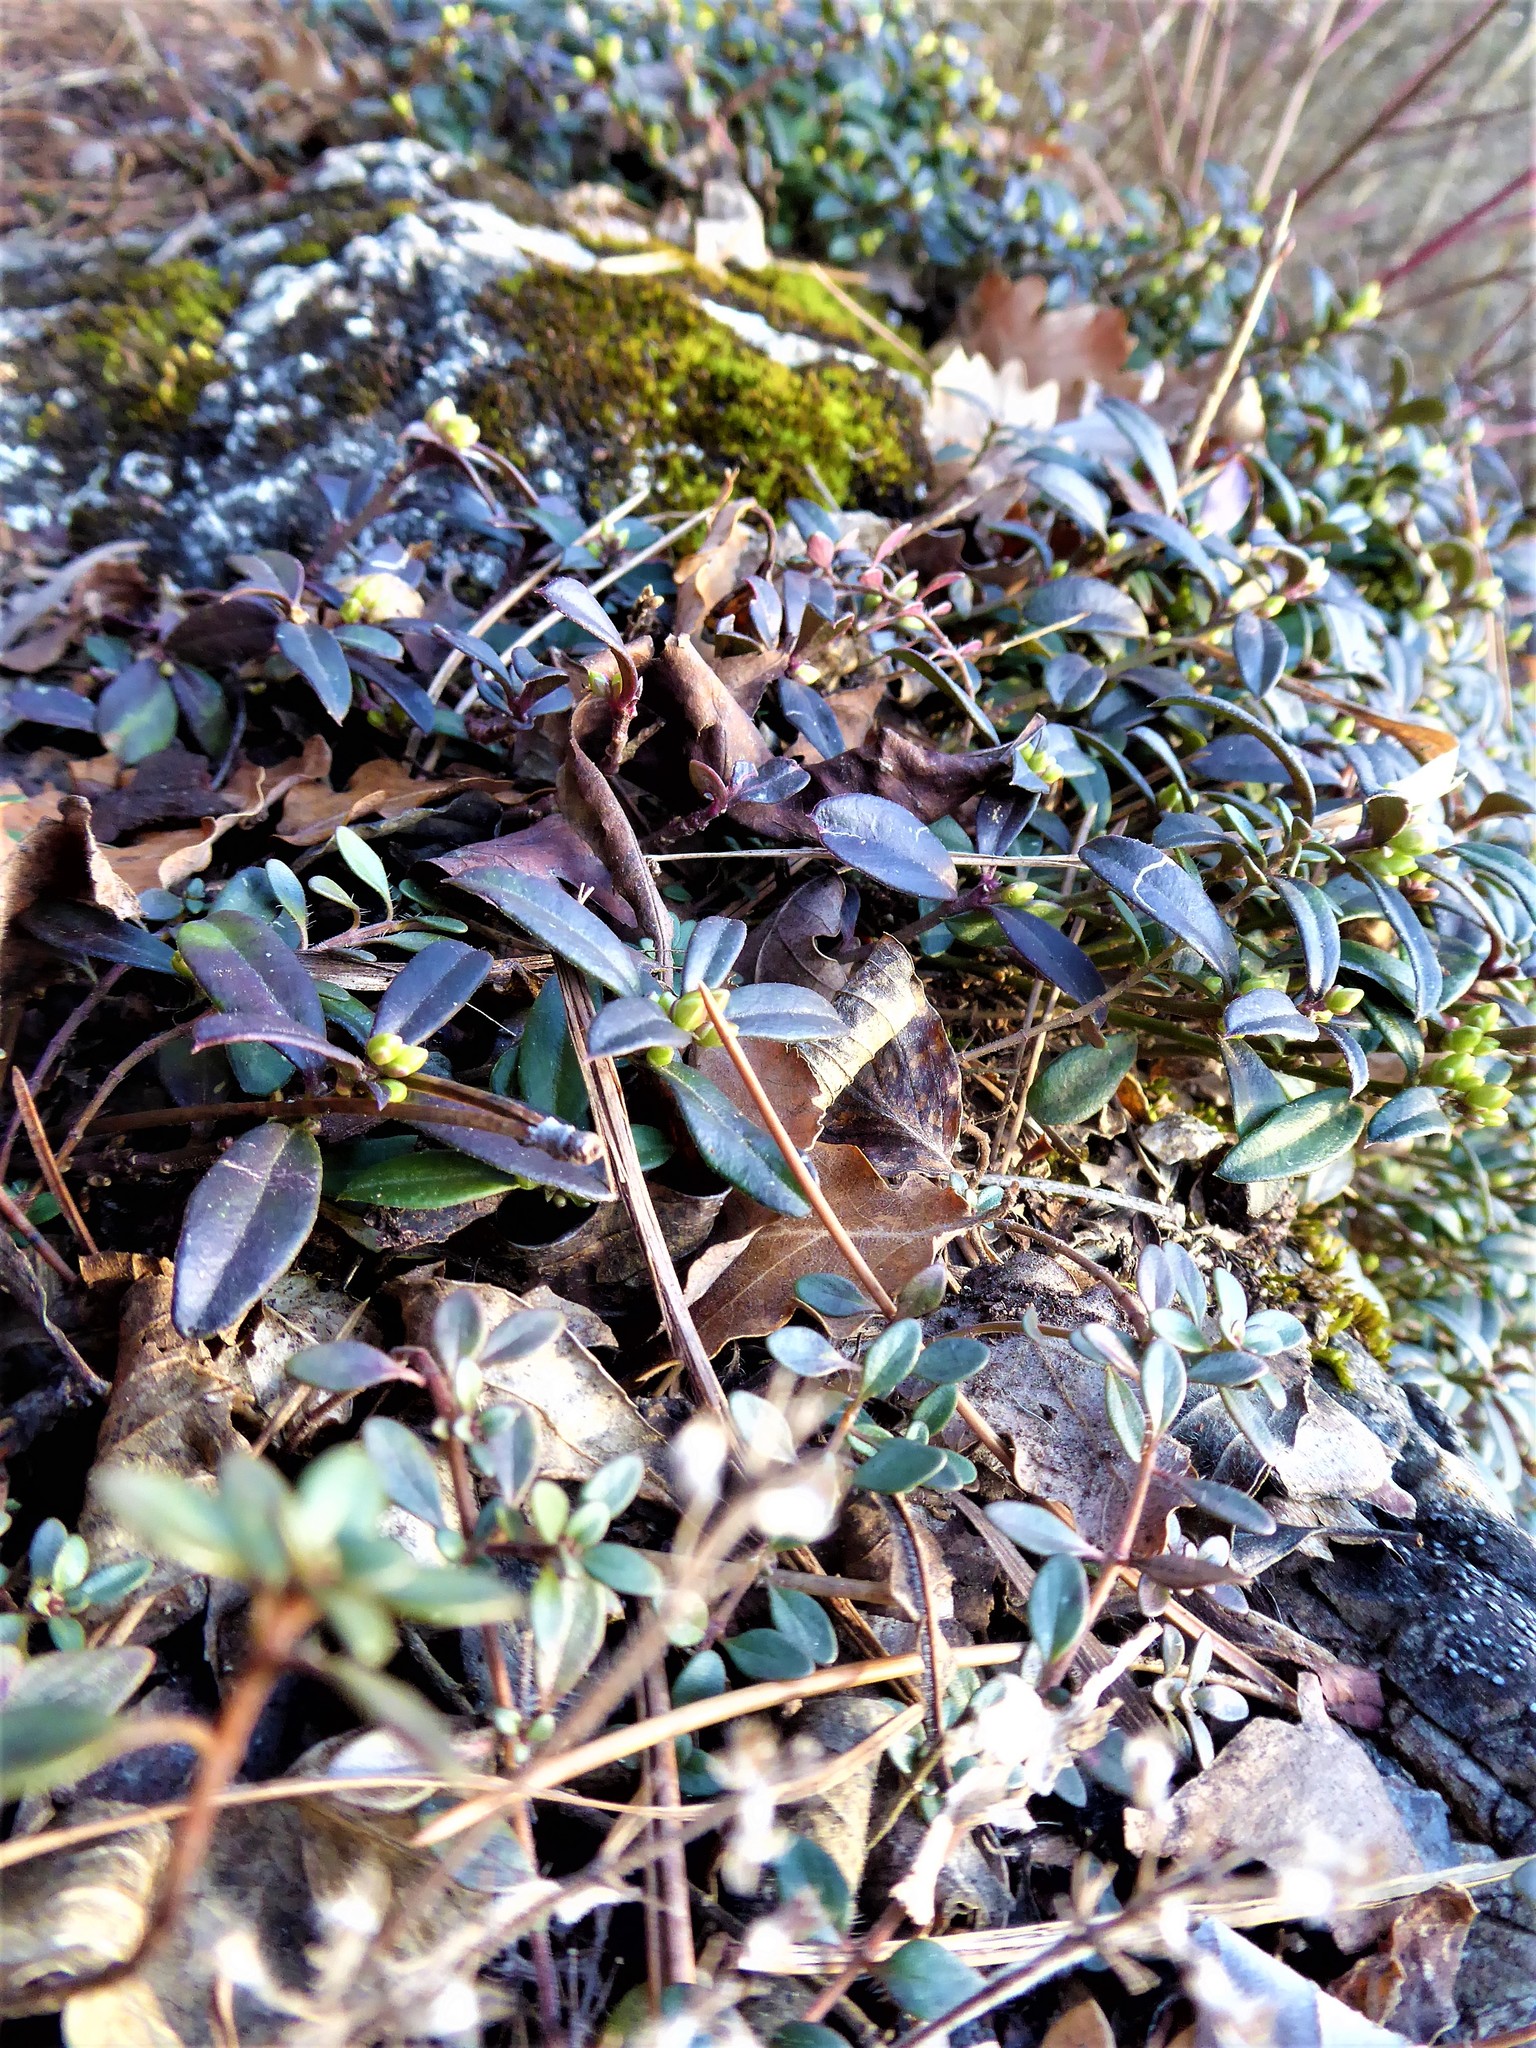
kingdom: Plantae
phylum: Tracheophyta
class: Magnoliopsida
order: Fabales
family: Polygalaceae
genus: Polygaloides
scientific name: Polygaloides chamaebuxus
